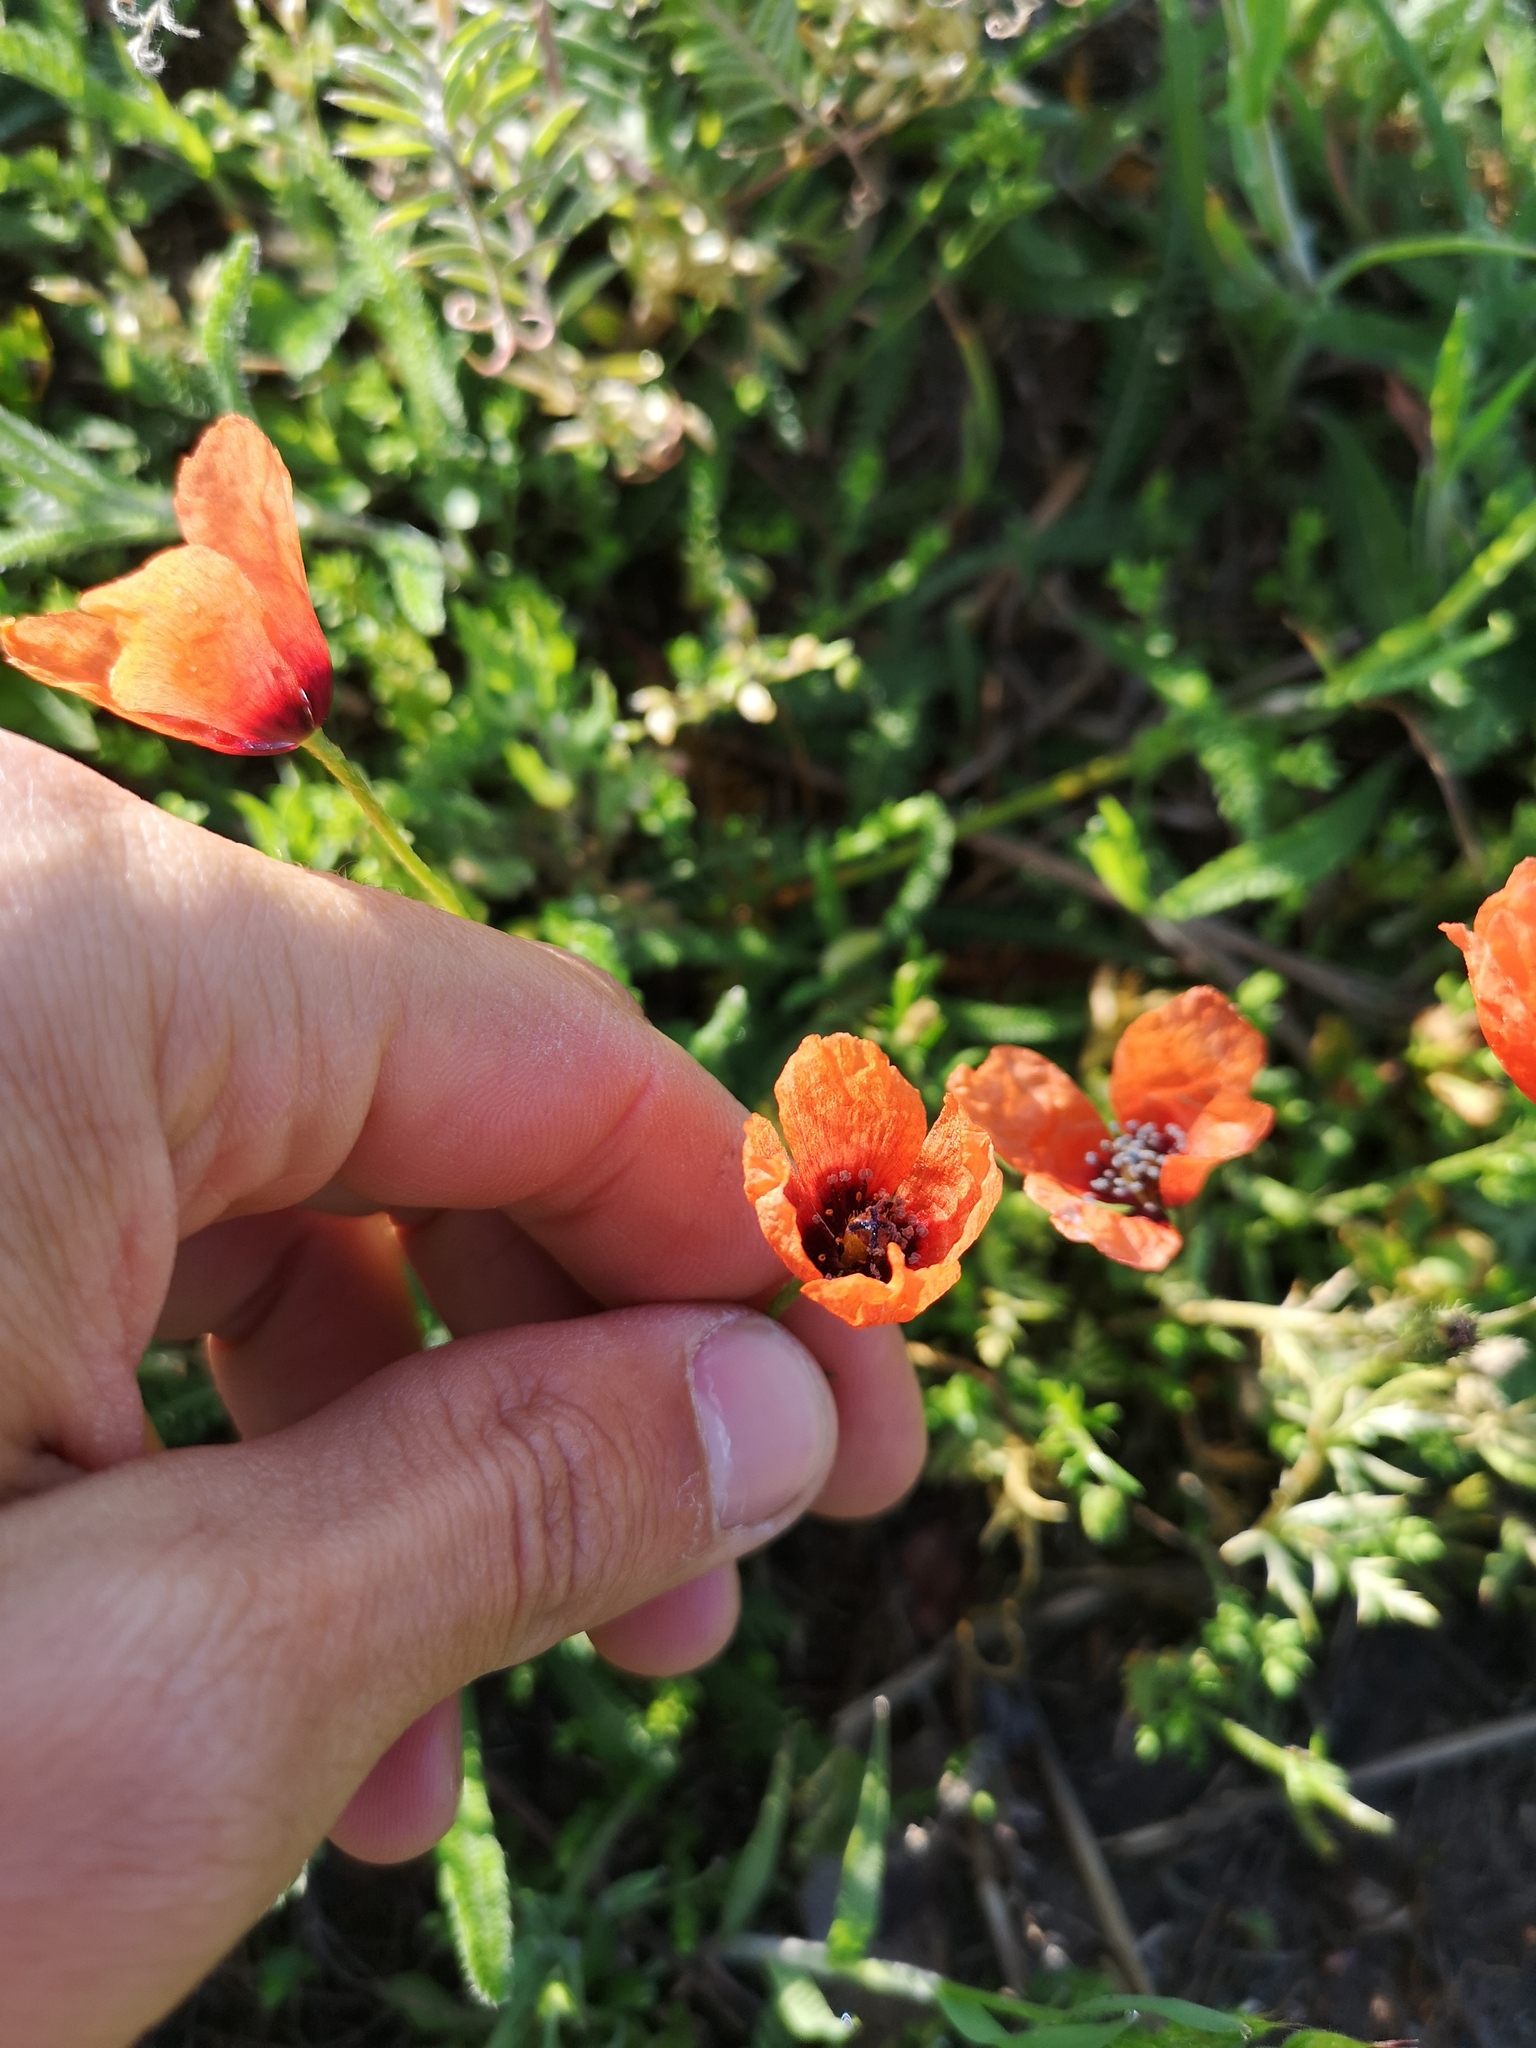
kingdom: Plantae
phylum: Tracheophyta
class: Magnoliopsida
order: Ranunculales
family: Papaveraceae
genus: Roemeria
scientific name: Roemeria argemone
